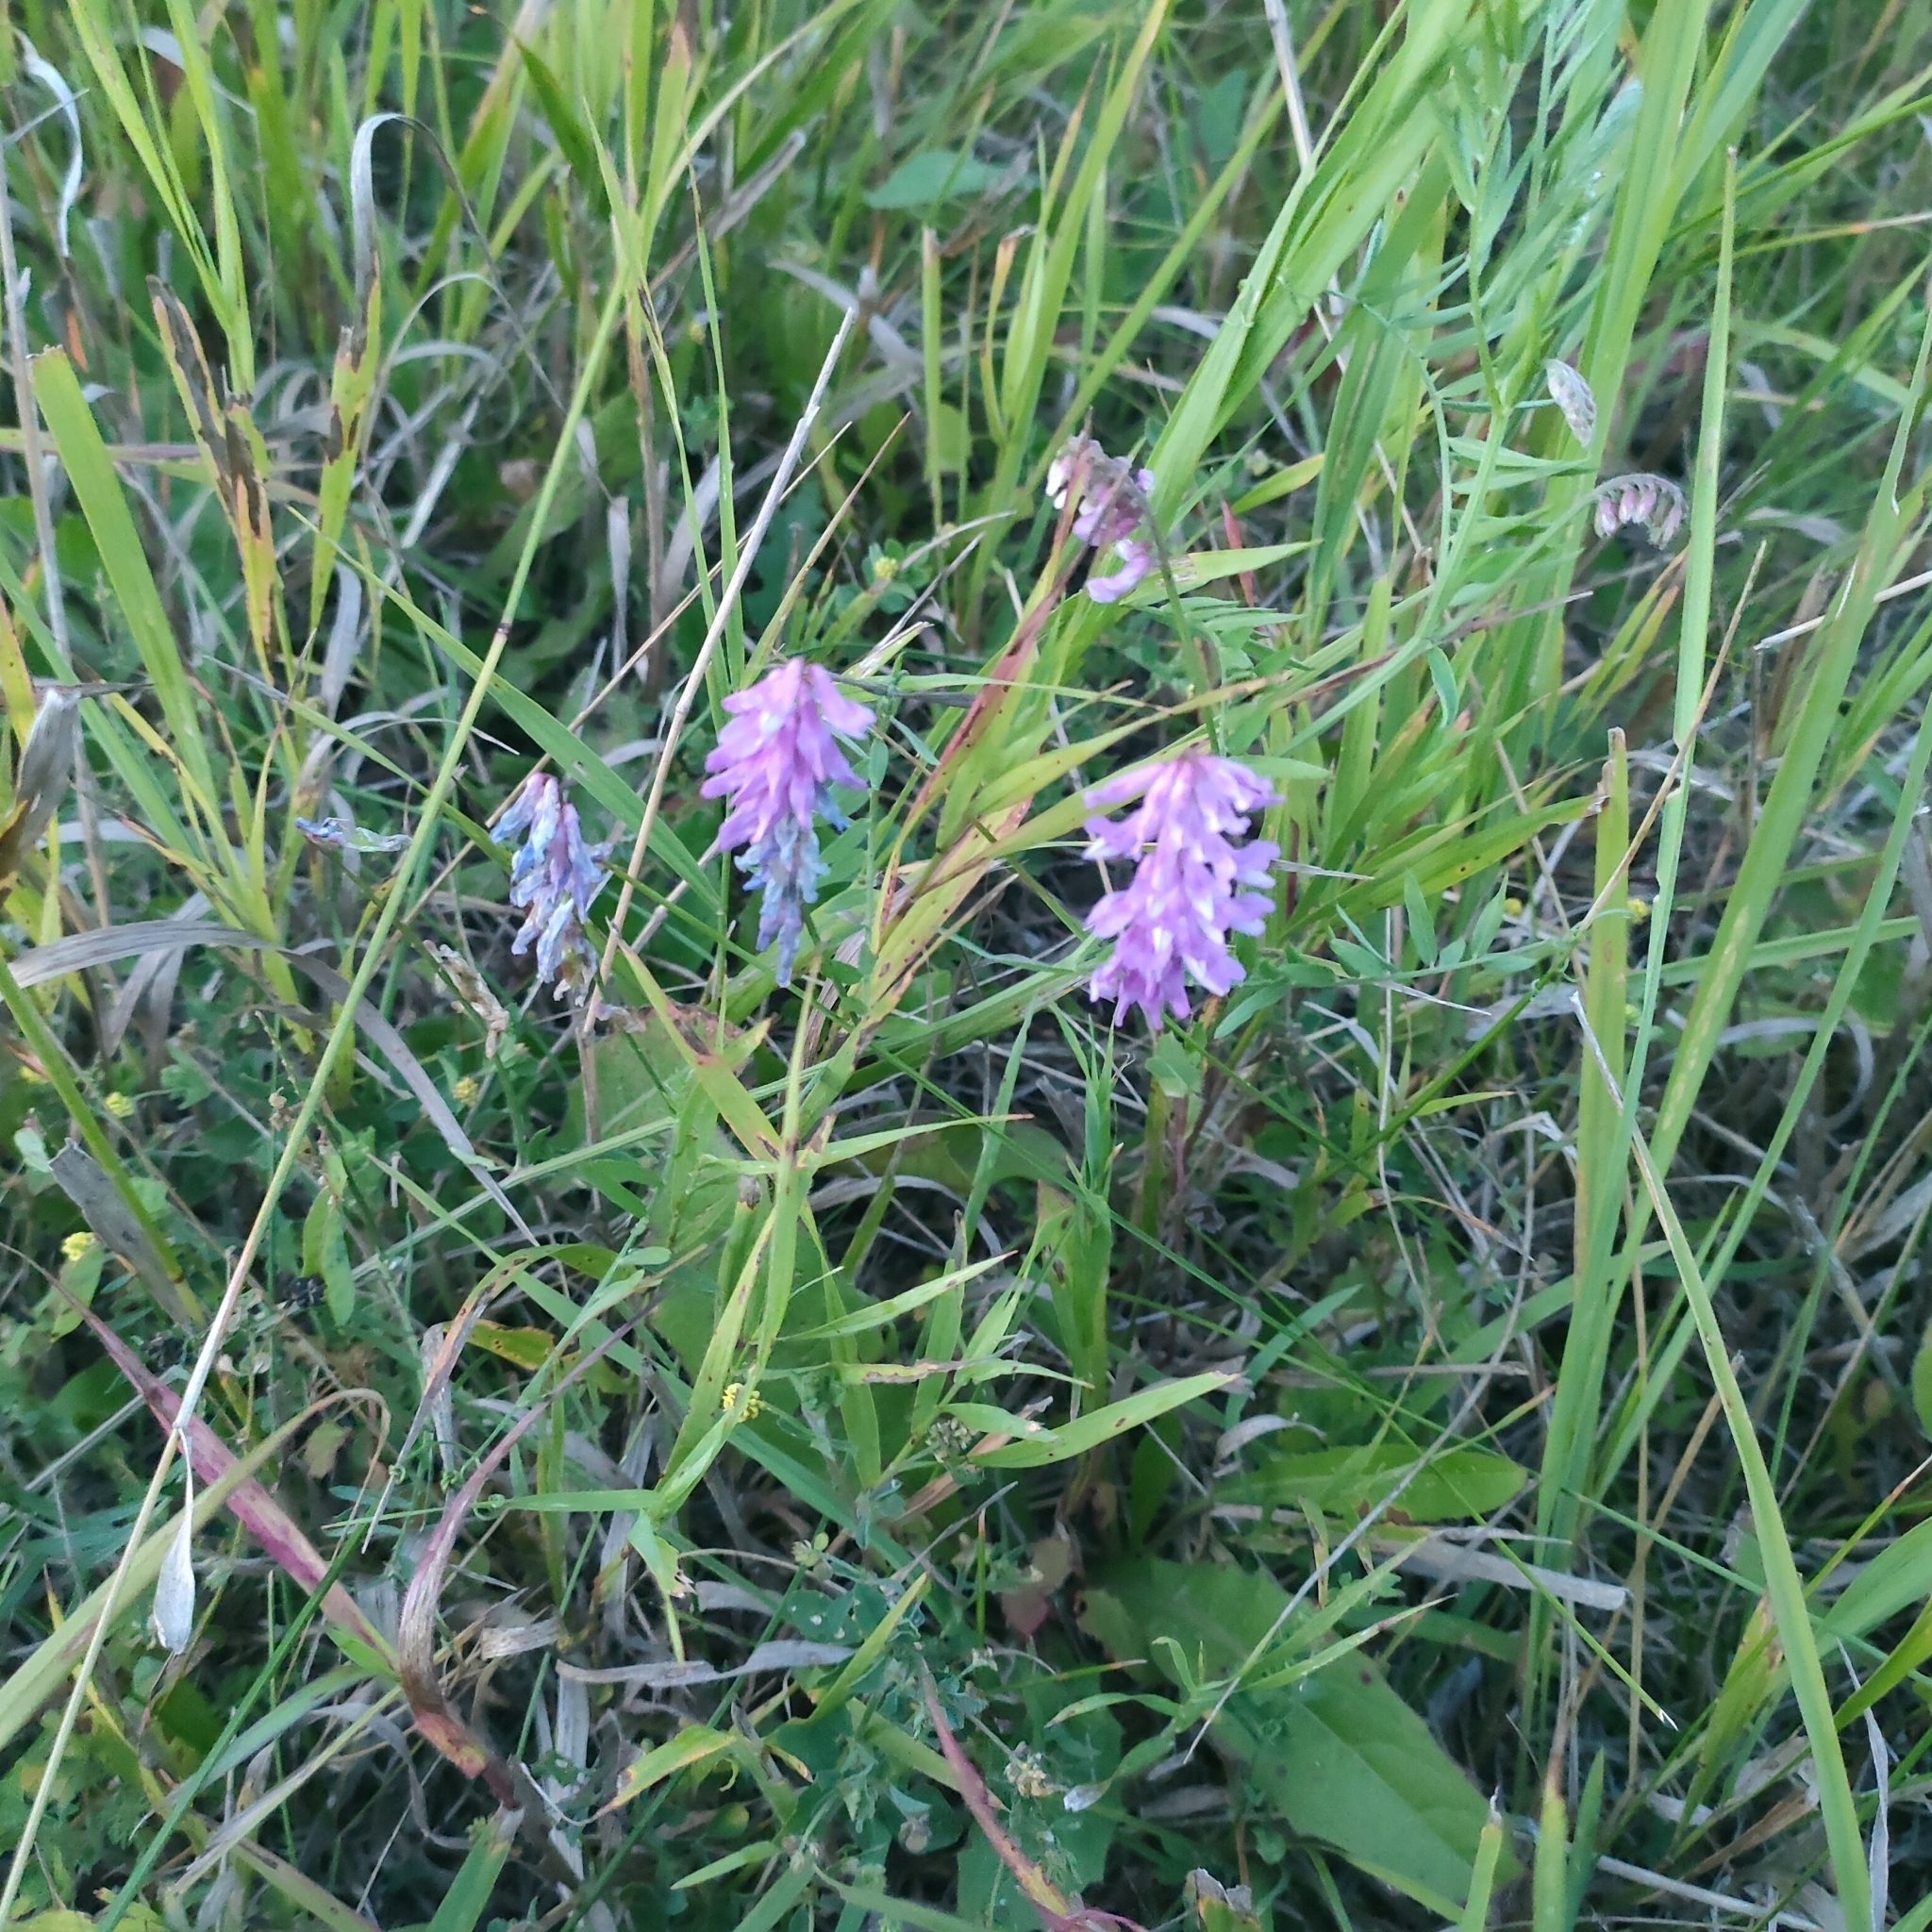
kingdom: Plantae
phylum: Tracheophyta
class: Magnoliopsida
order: Fabales
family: Fabaceae
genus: Vicia
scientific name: Vicia cracca
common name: Bird vetch
